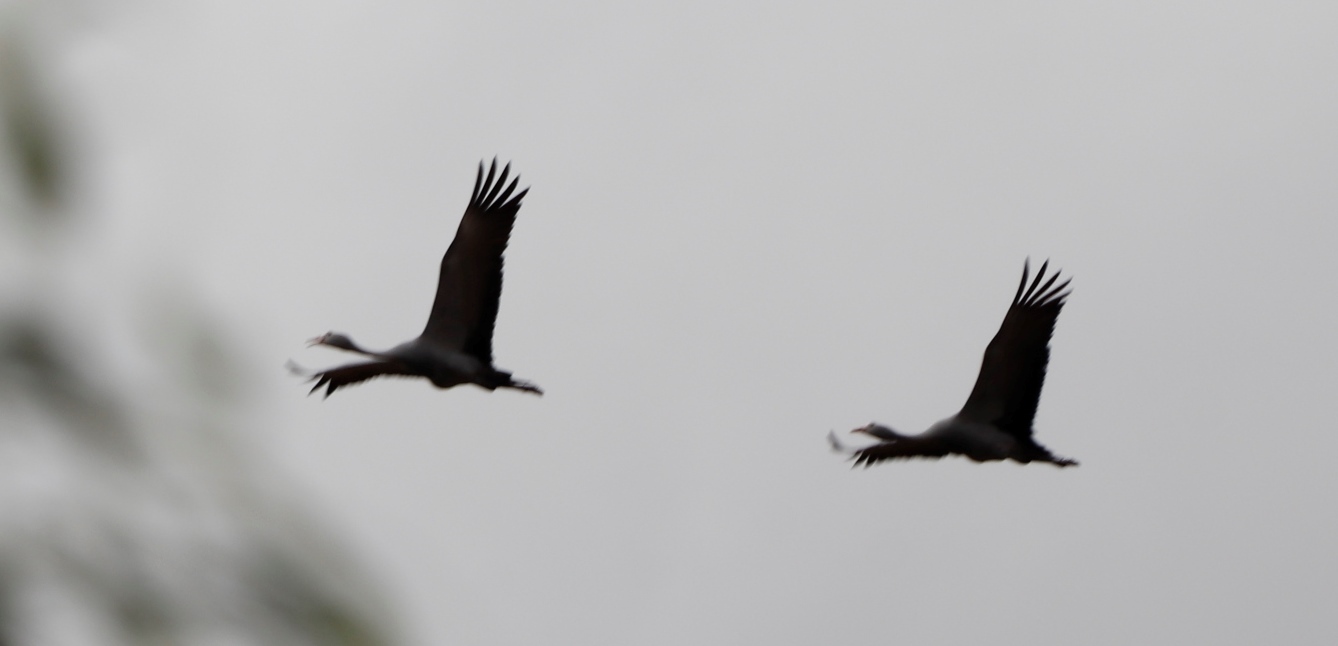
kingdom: Animalia
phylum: Chordata
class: Aves
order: Gruiformes
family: Gruidae
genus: Anthropoides
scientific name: Anthropoides paradiseus
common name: Blue crane
